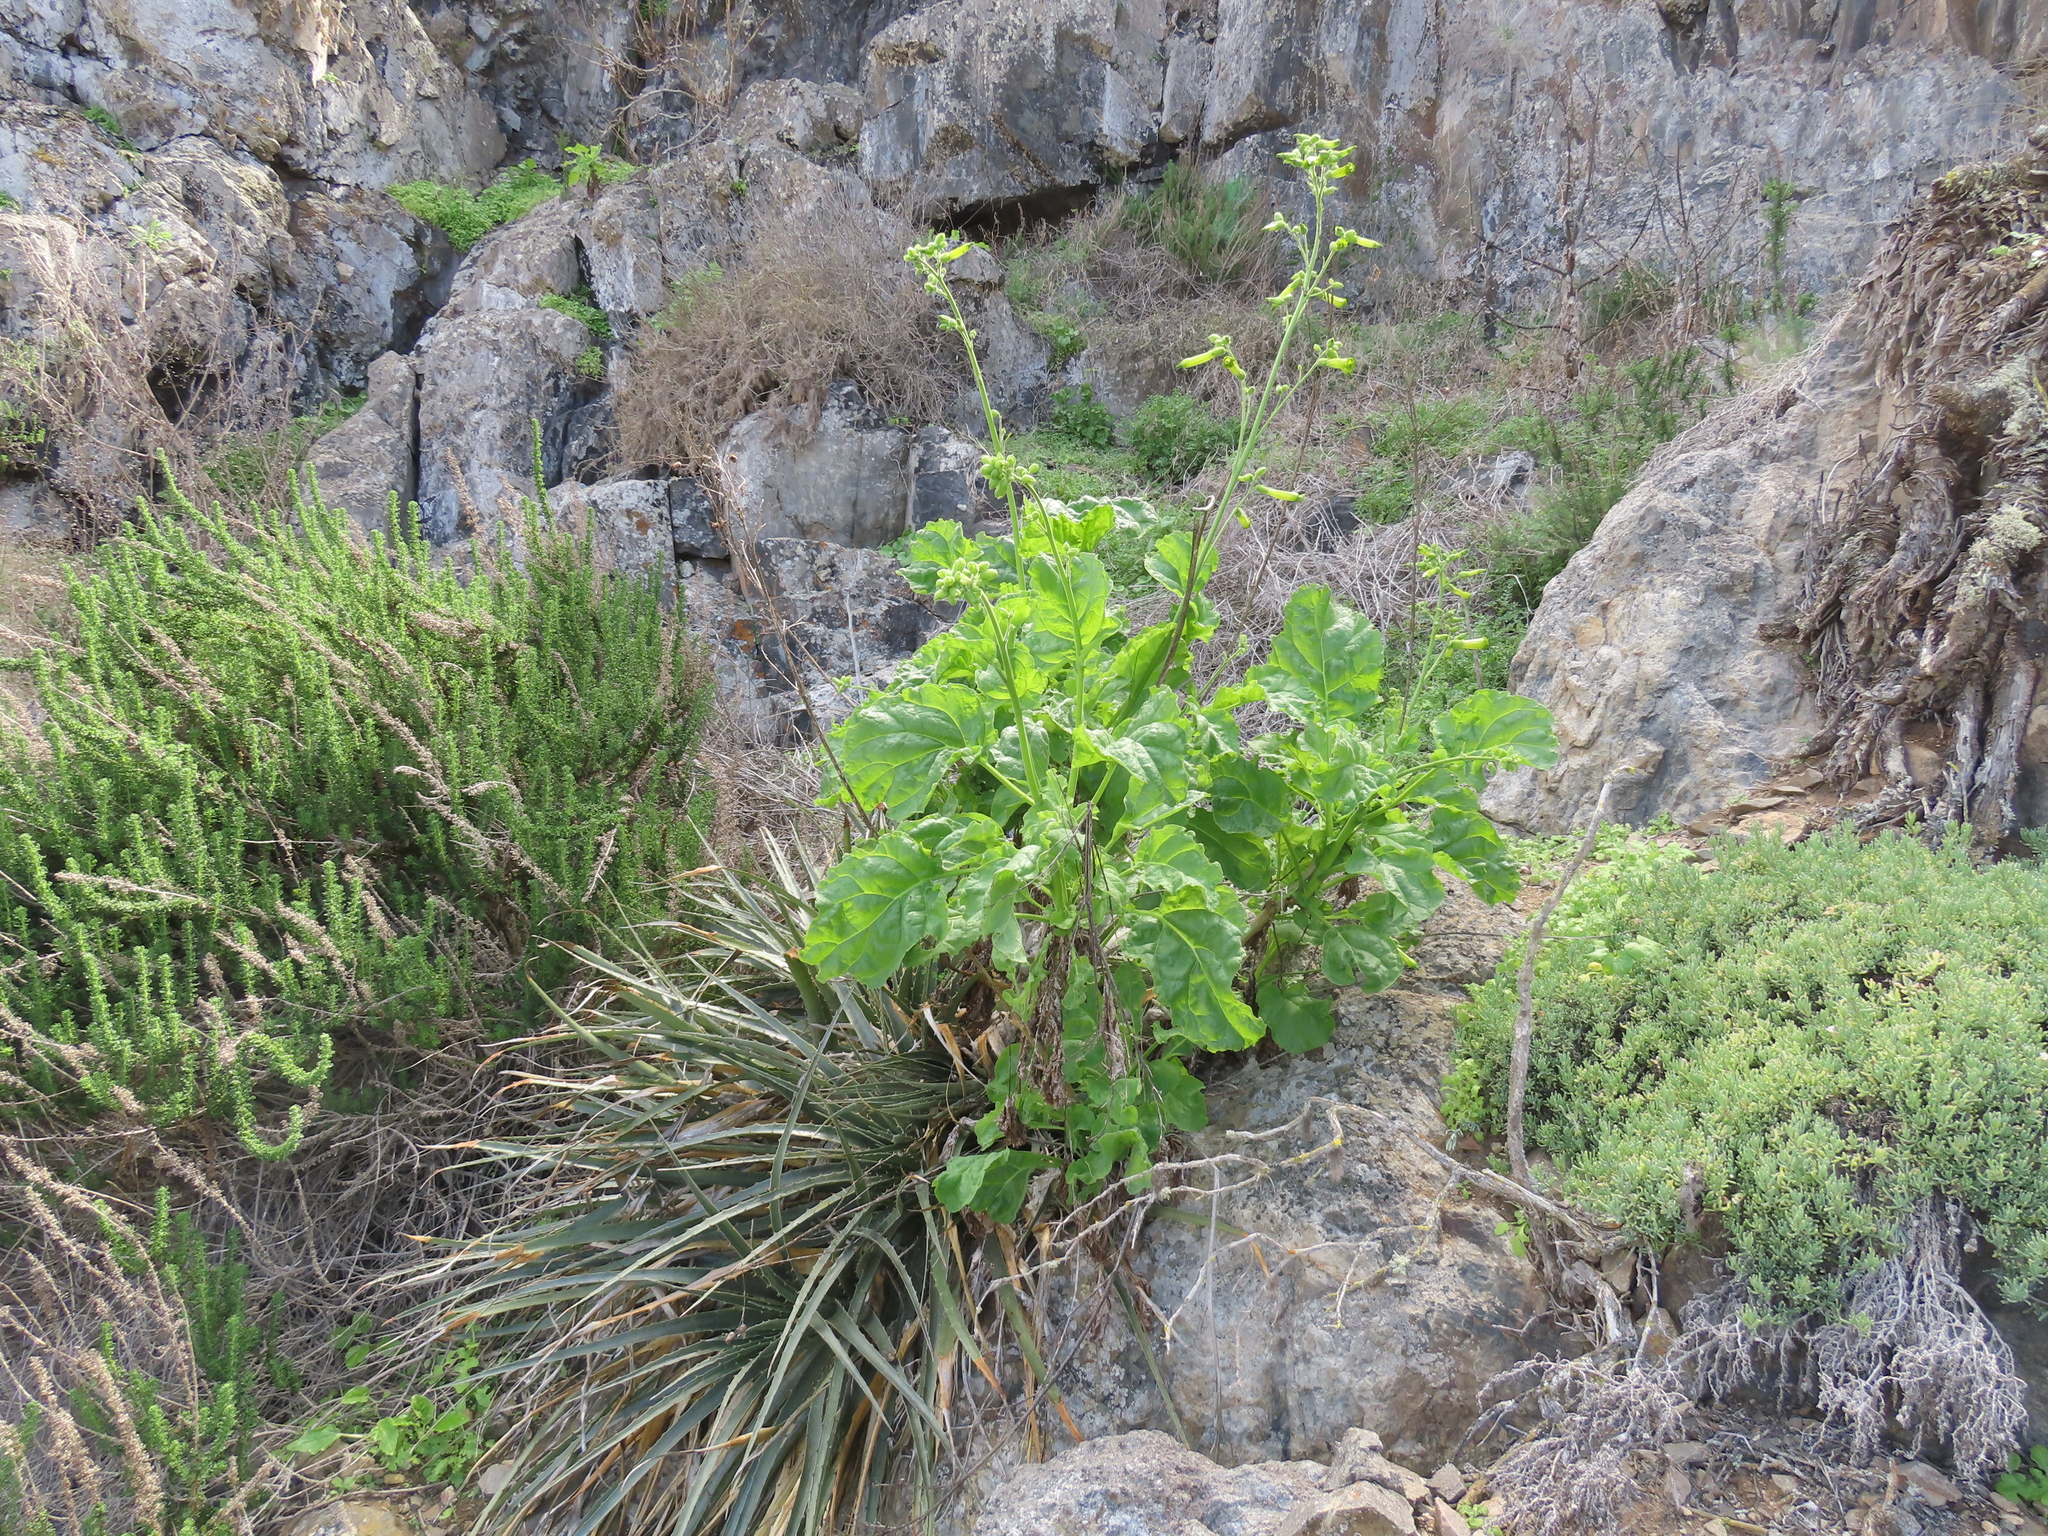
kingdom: Plantae
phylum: Tracheophyta
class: Magnoliopsida
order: Solanales
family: Solanaceae
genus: Nicotiana
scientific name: Nicotiana solanifolia
